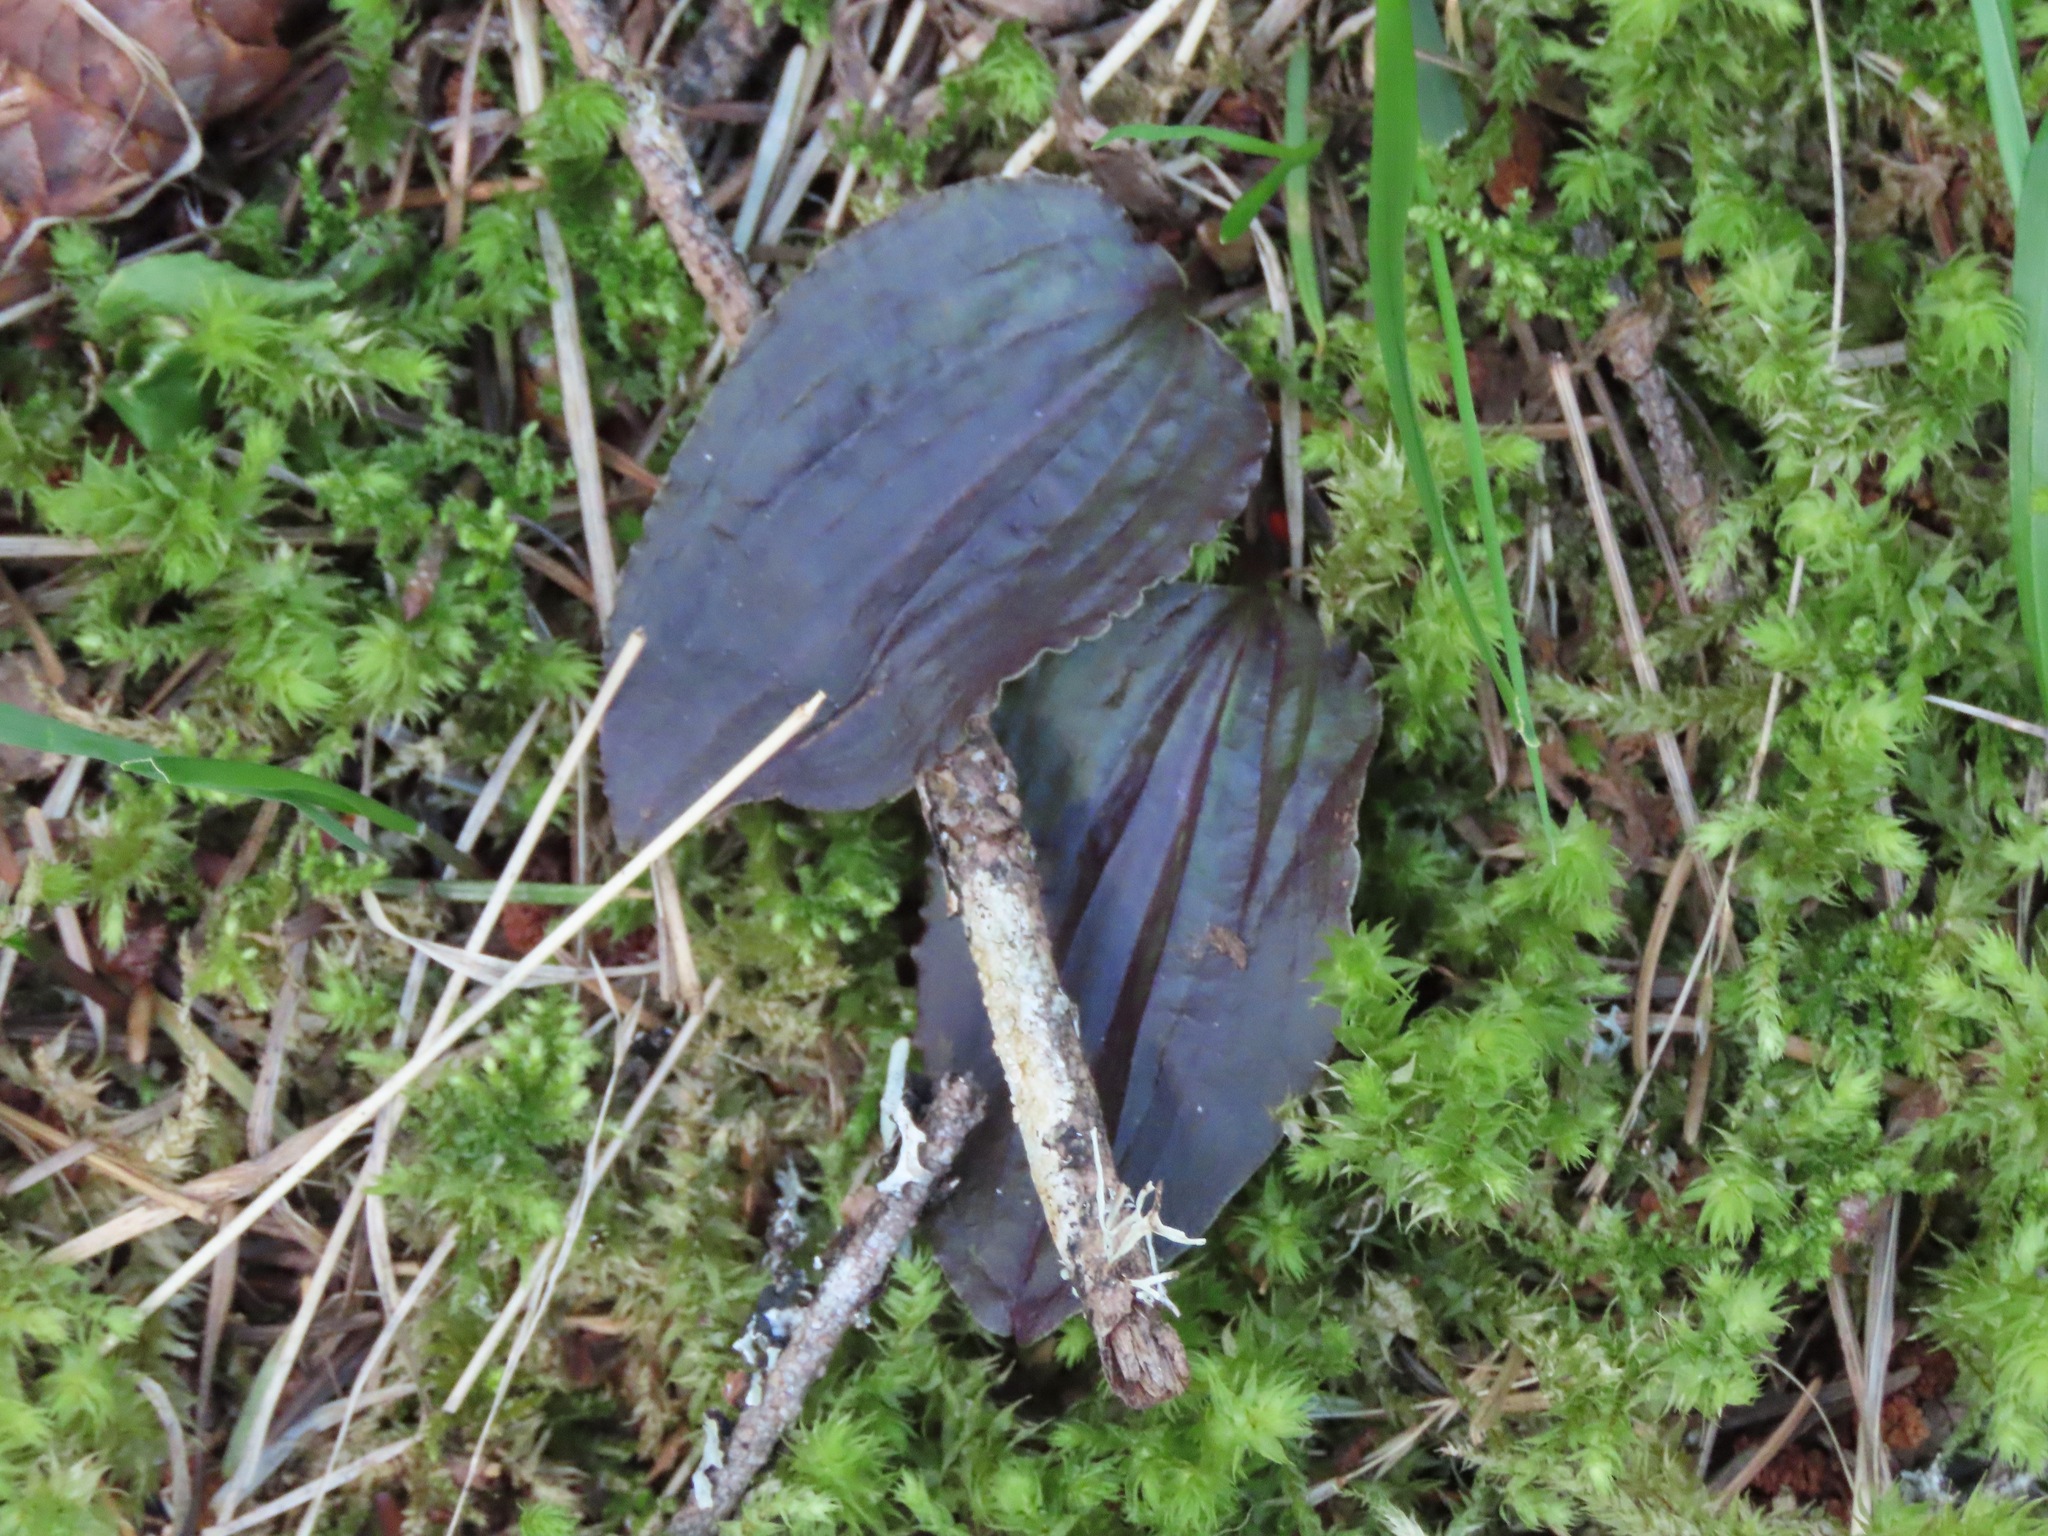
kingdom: Plantae
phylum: Tracheophyta
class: Liliopsida
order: Asparagales
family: Orchidaceae
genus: Calypso
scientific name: Calypso bulbosa
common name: Calypso
